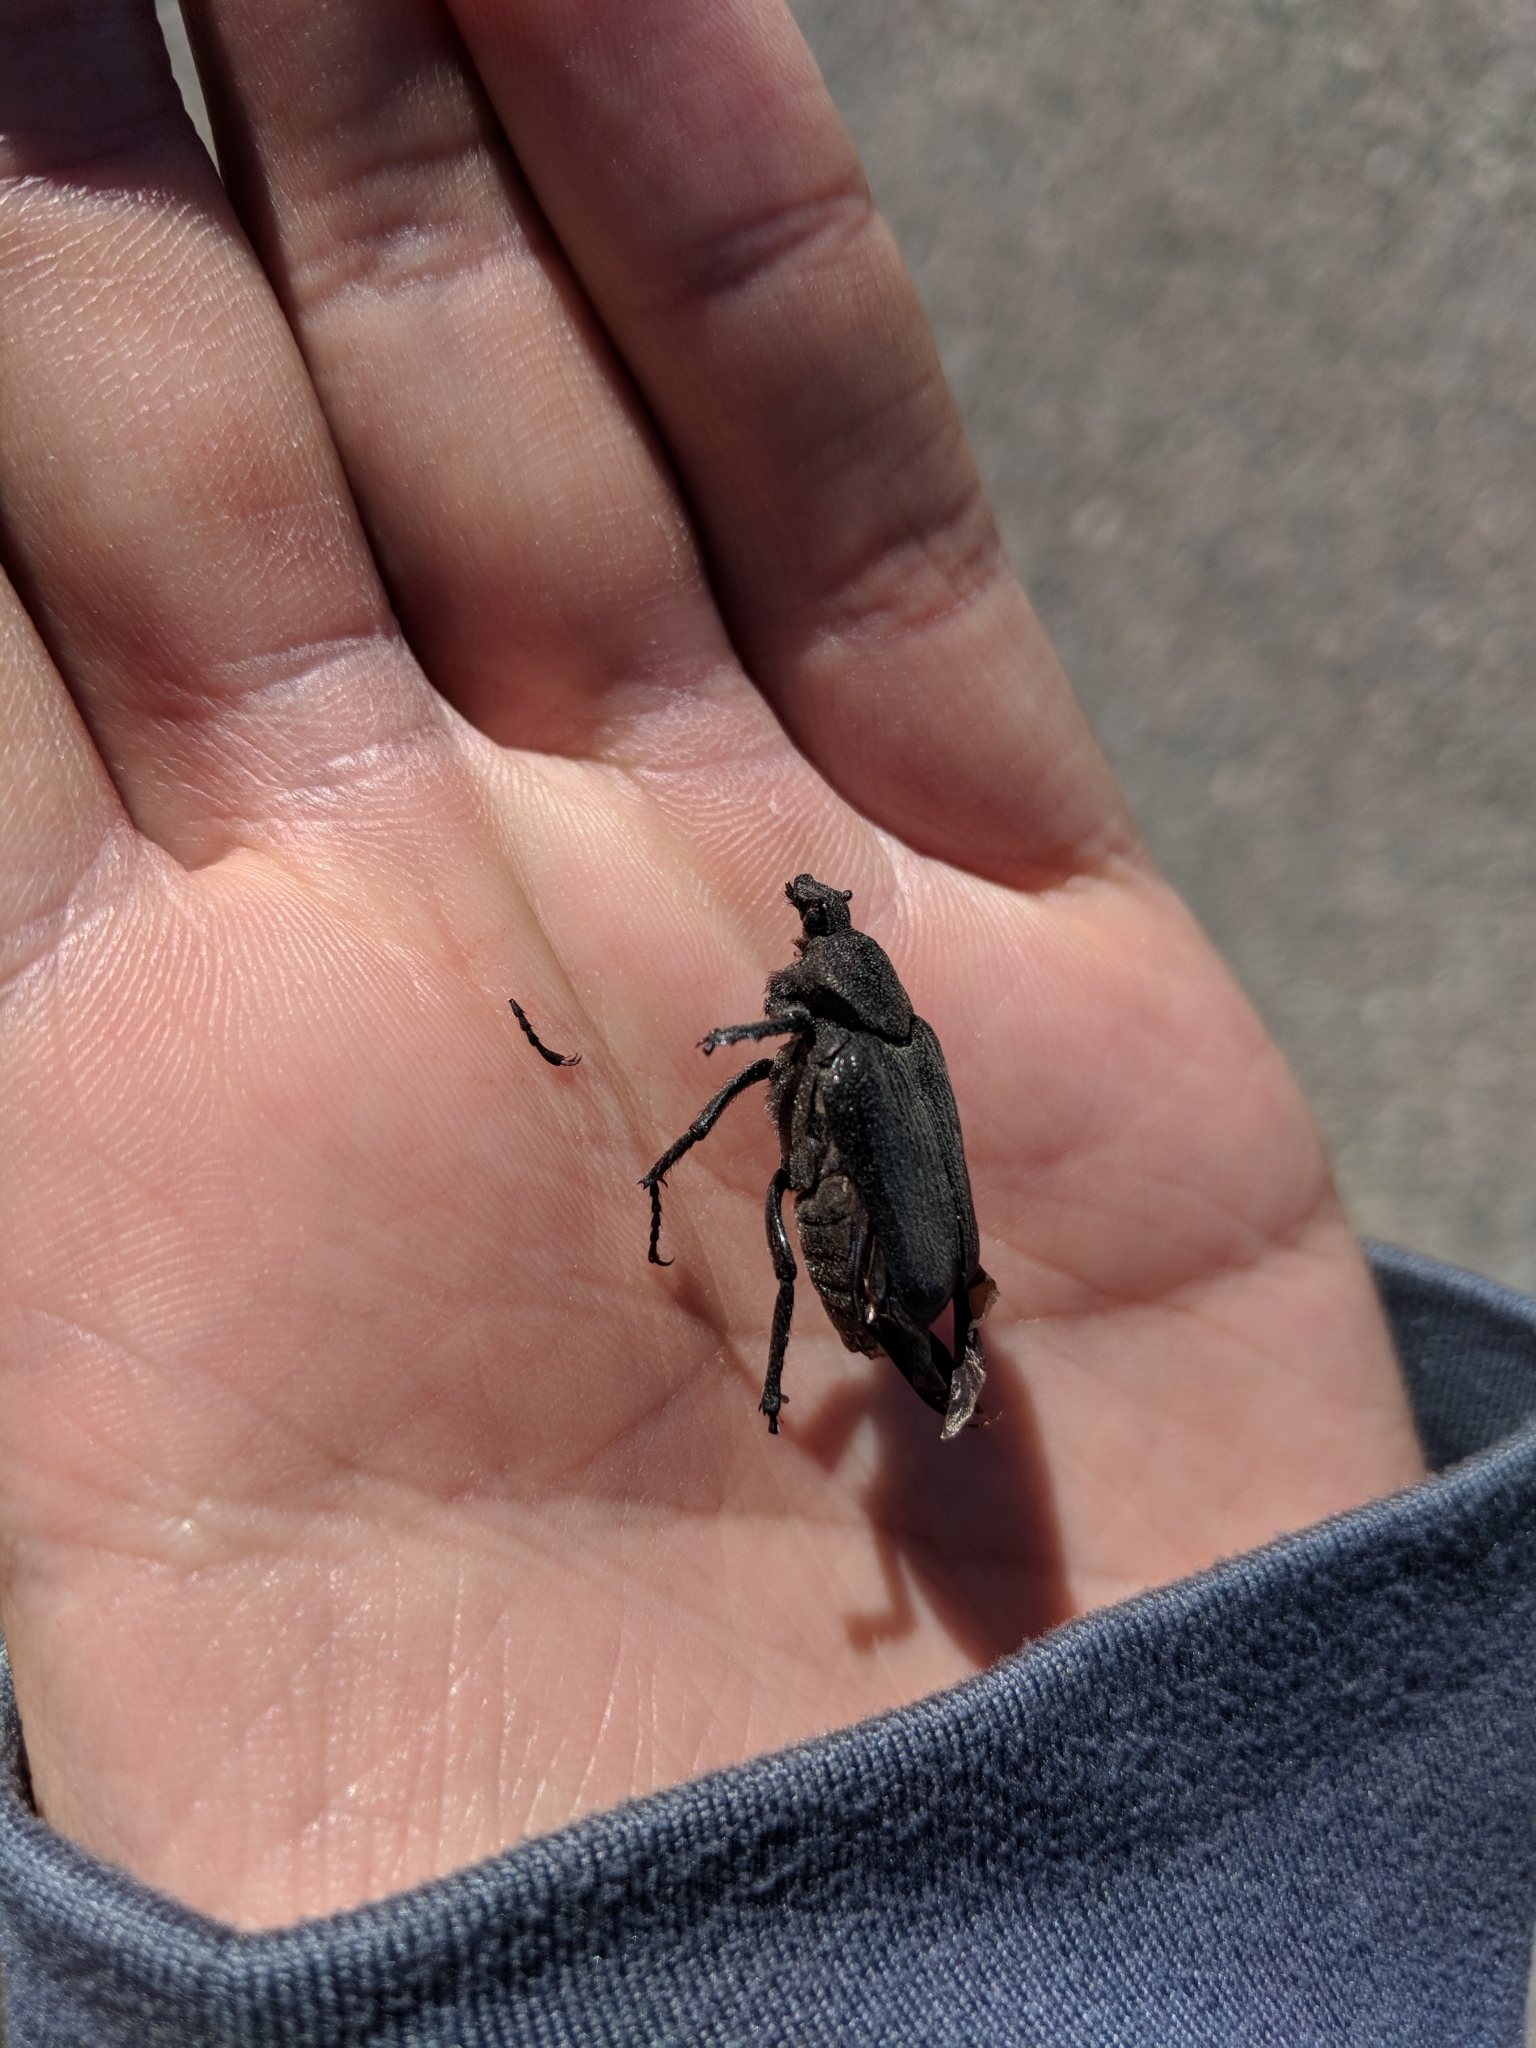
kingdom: Animalia
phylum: Arthropoda
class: Insecta
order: Coleoptera
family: Scarabaeidae
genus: Osmoderma
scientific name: Osmoderma scabra
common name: Rough hermit beetle
